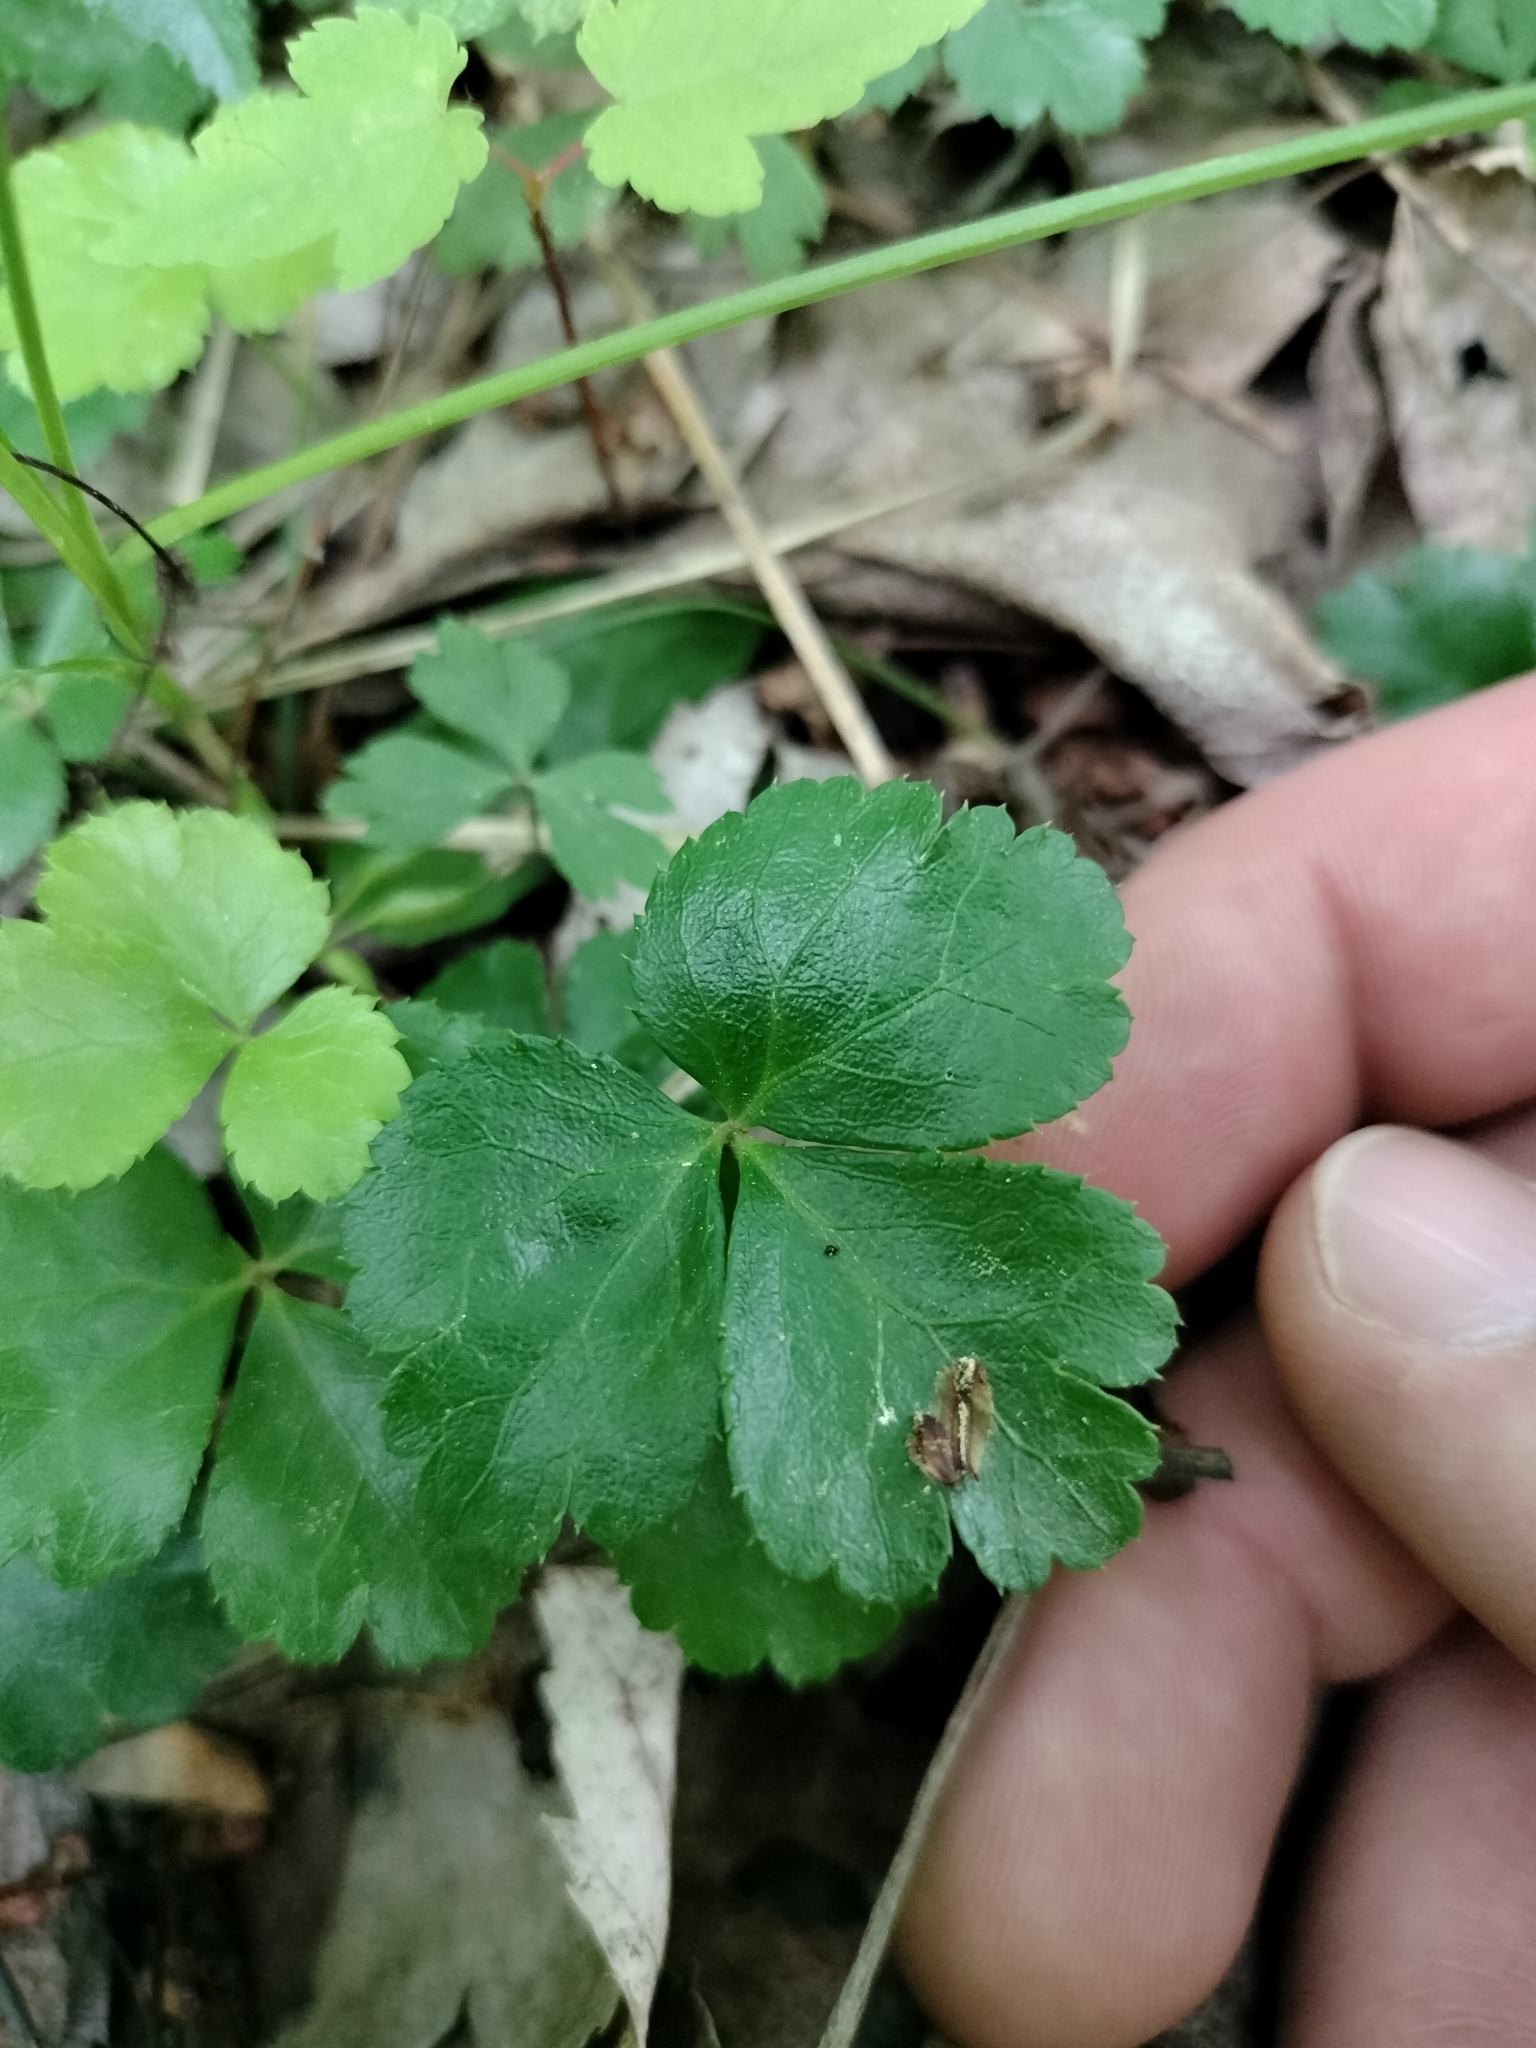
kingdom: Plantae
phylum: Tracheophyta
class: Magnoliopsida
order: Ranunculales
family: Ranunculaceae
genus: Coptis
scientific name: Coptis trifolia
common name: Canker-root
